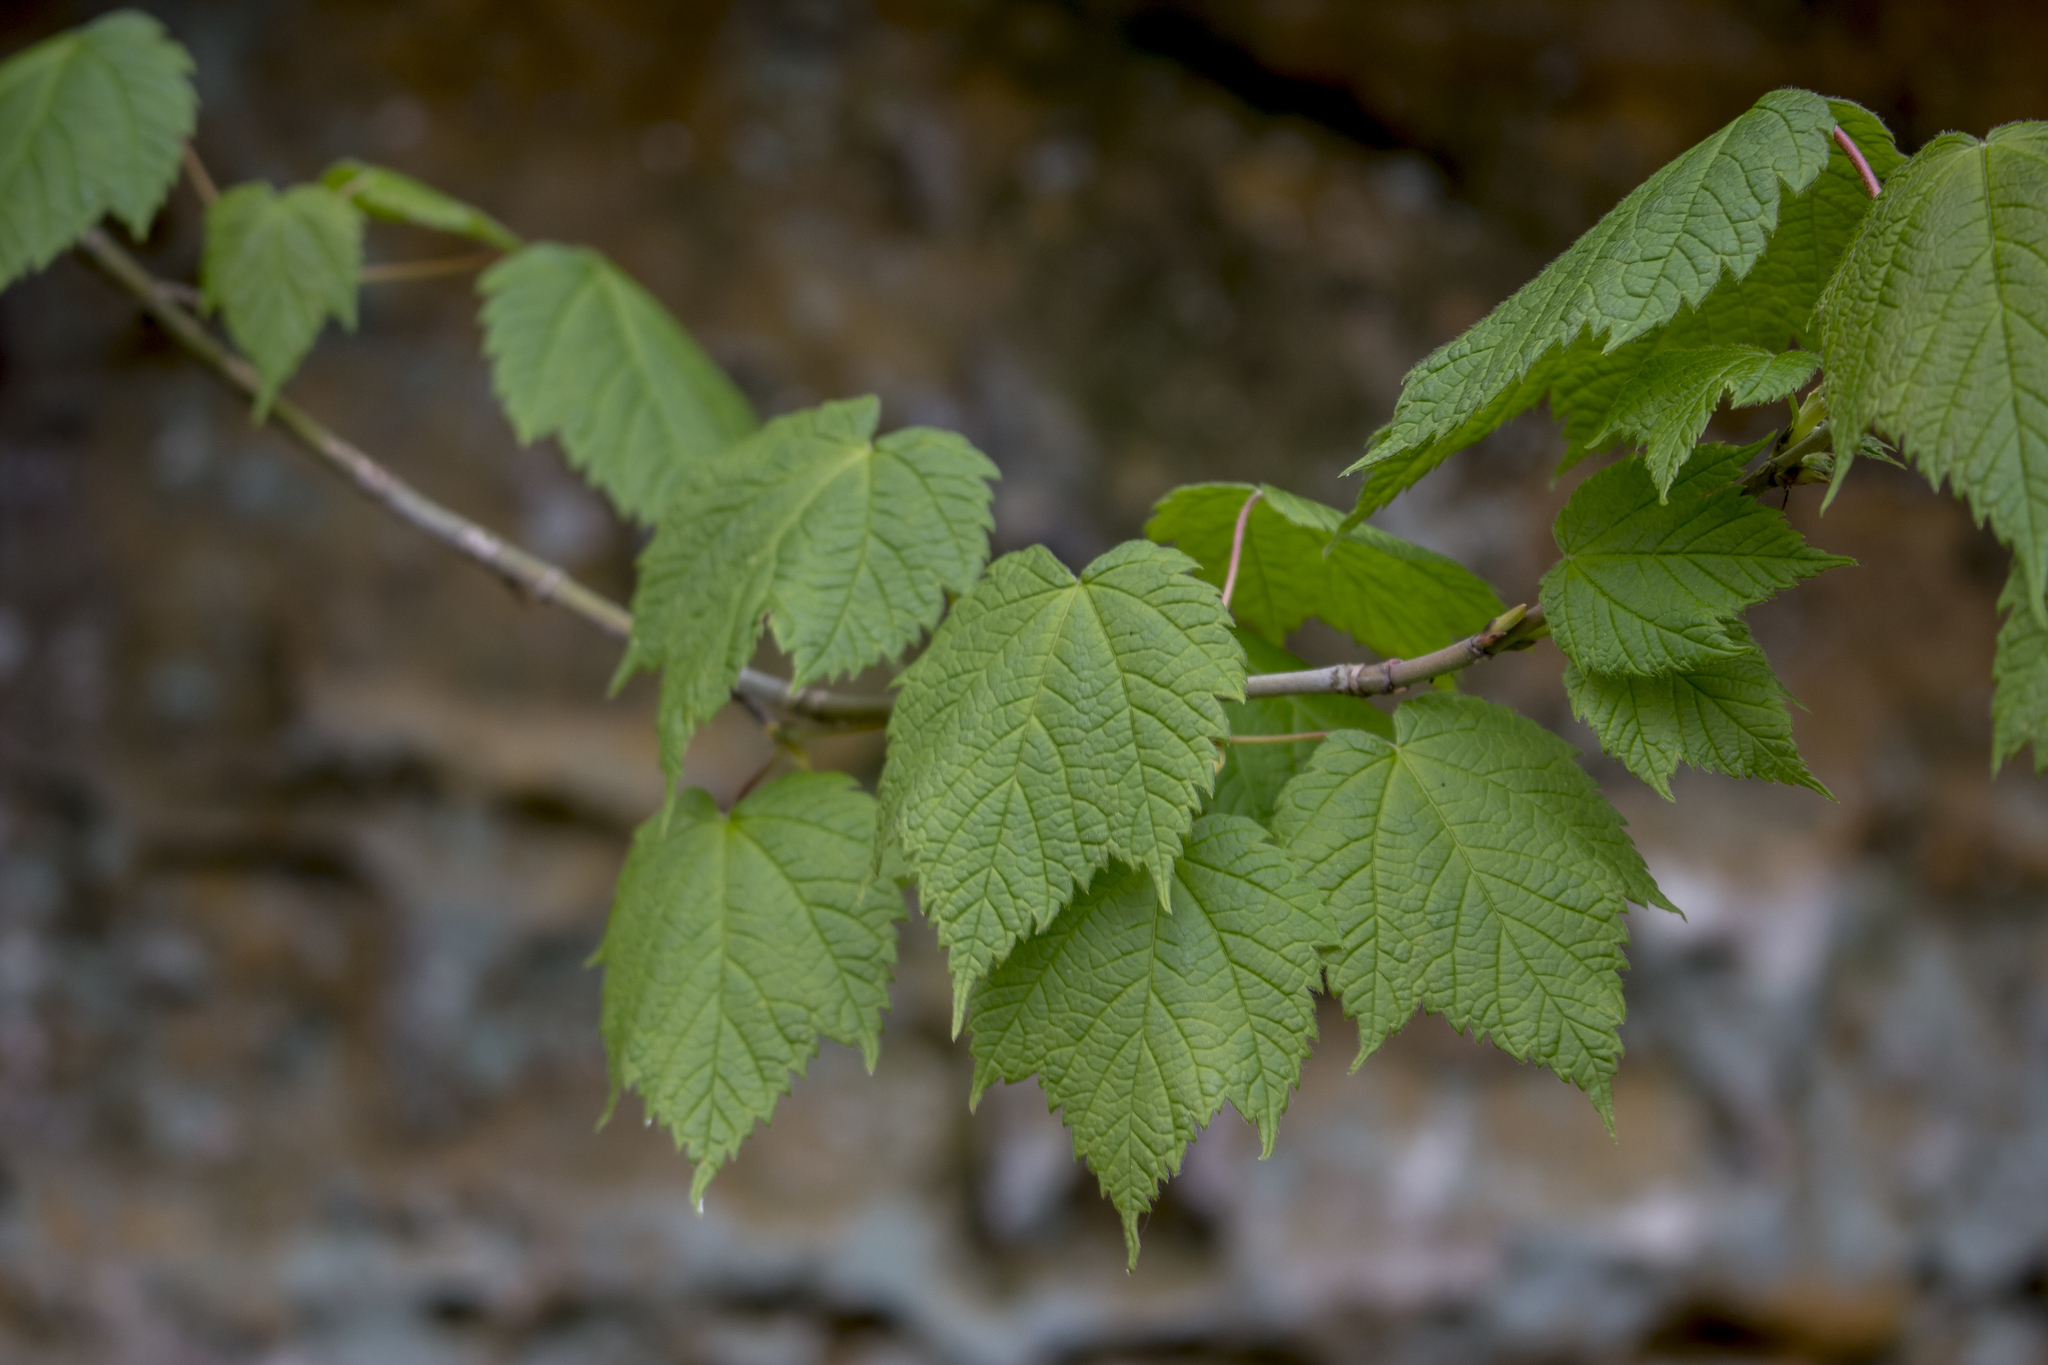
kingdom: Plantae
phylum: Tracheophyta
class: Magnoliopsida
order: Sapindales
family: Sapindaceae
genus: Acer
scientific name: Acer spicatum
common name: Mountain maple
